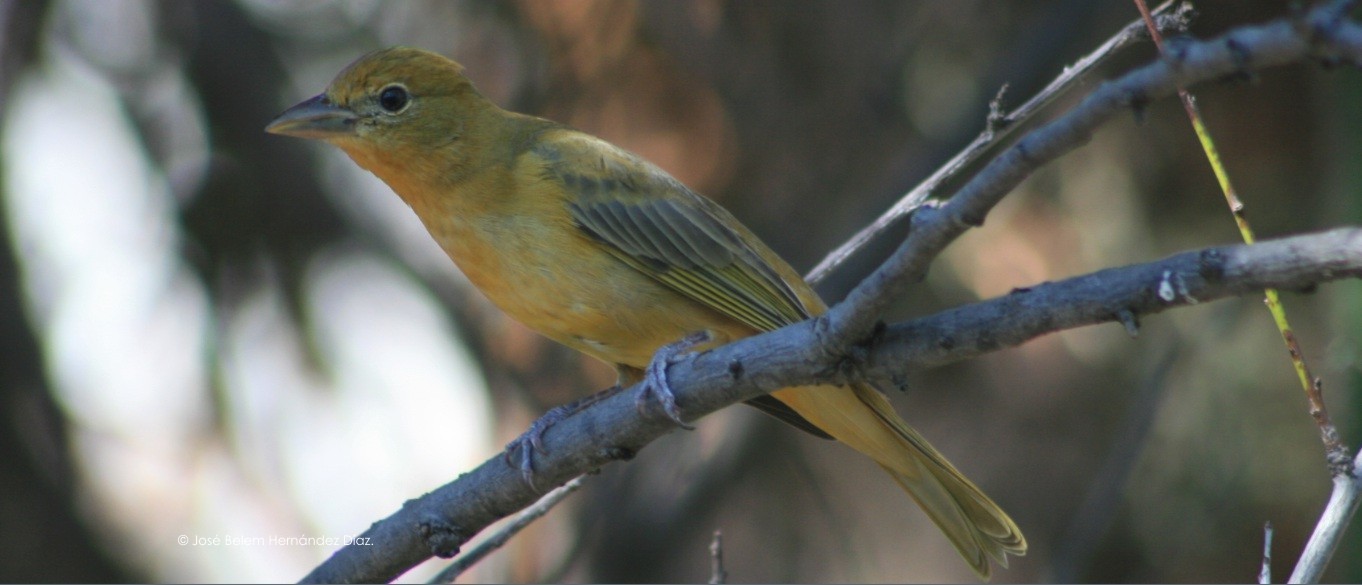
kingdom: Animalia
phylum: Chordata
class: Aves
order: Passeriformes
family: Cardinalidae
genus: Piranga
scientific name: Piranga rubra
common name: Summer tanager
